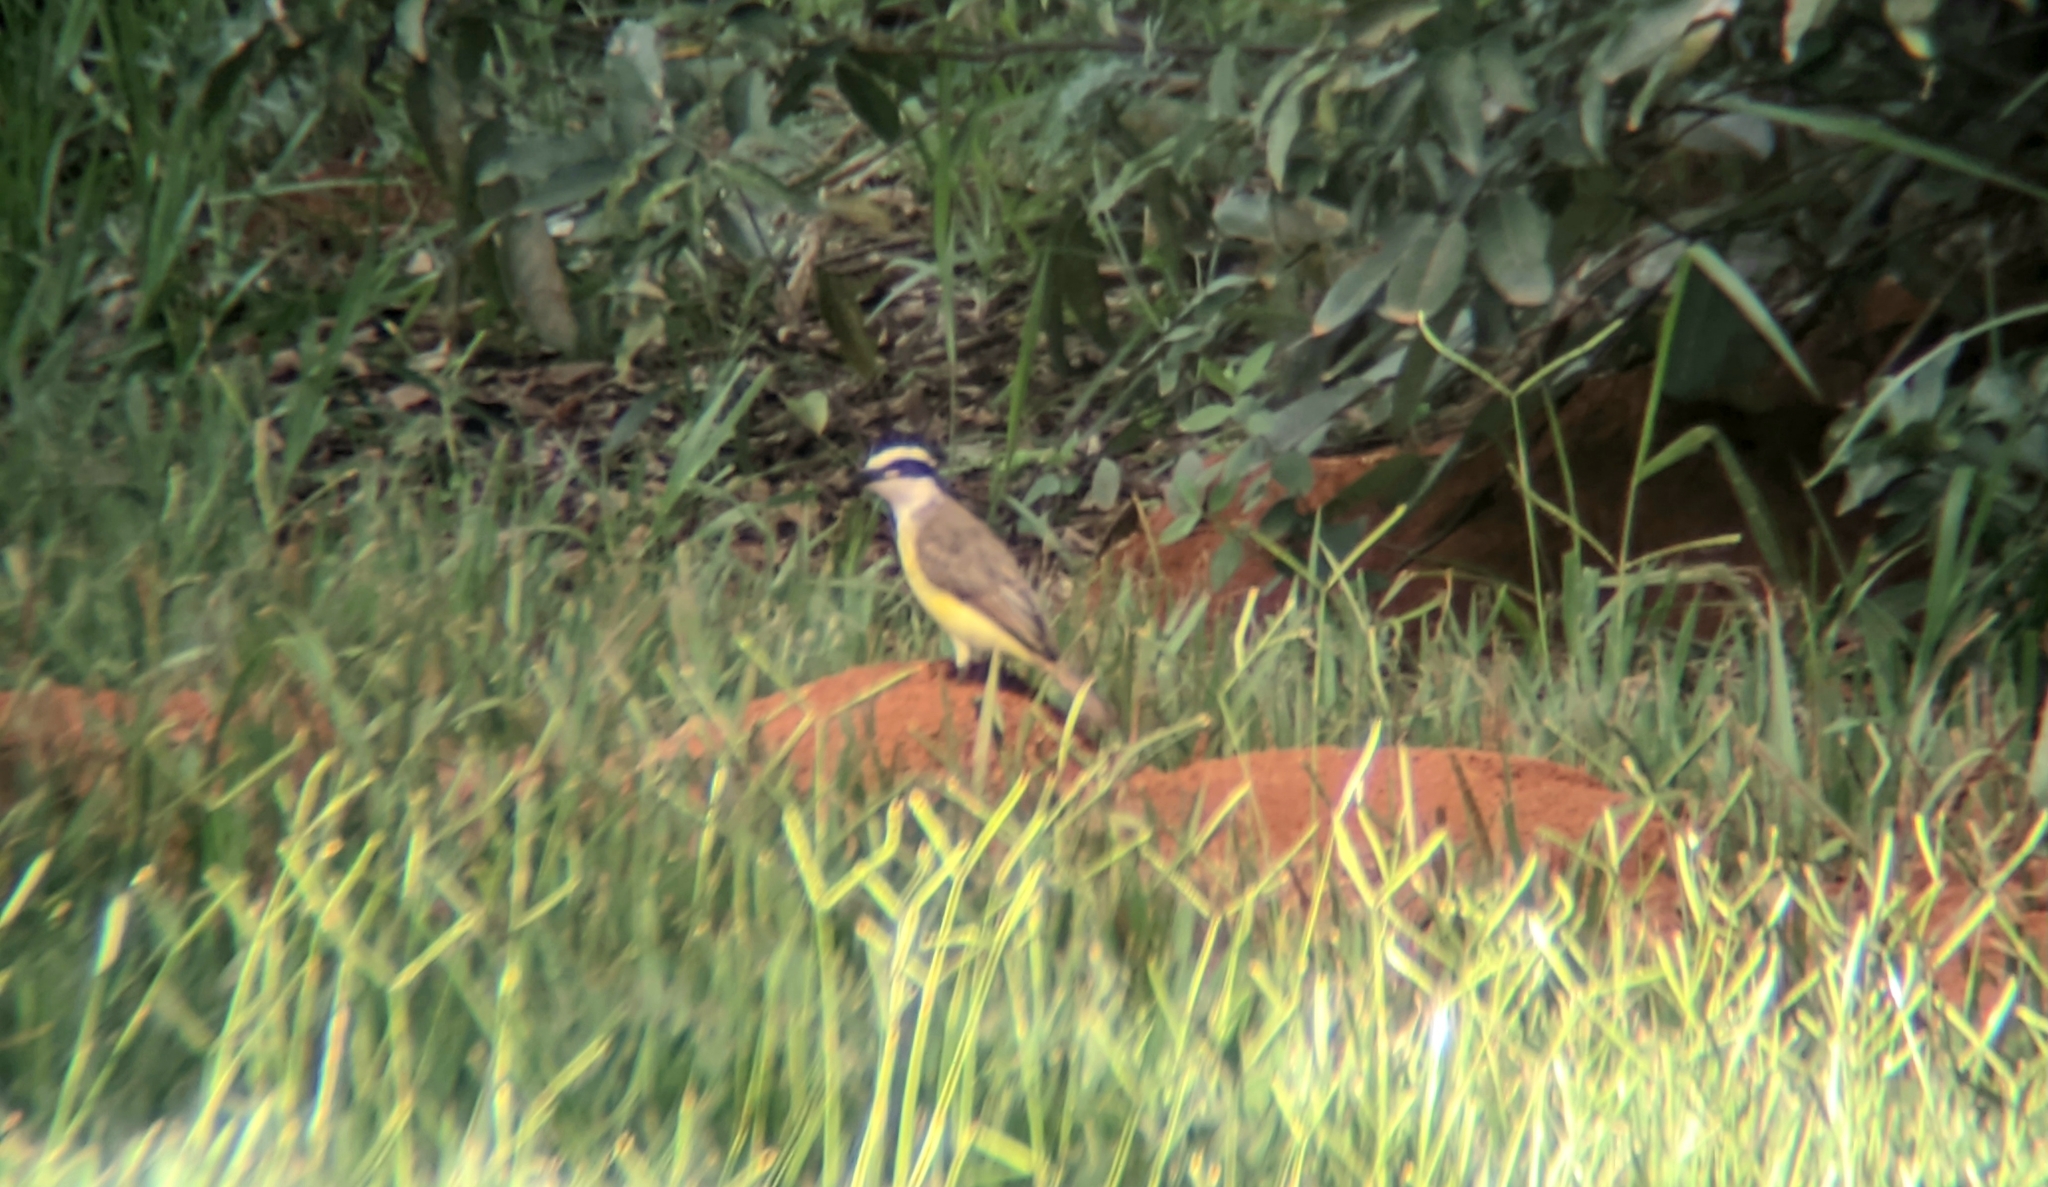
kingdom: Animalia
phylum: Chordata
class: Aves
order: Passeriformes
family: Tyrannidae
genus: Pitangus
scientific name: Pitangus sulphuratus
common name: Great kiskadee
